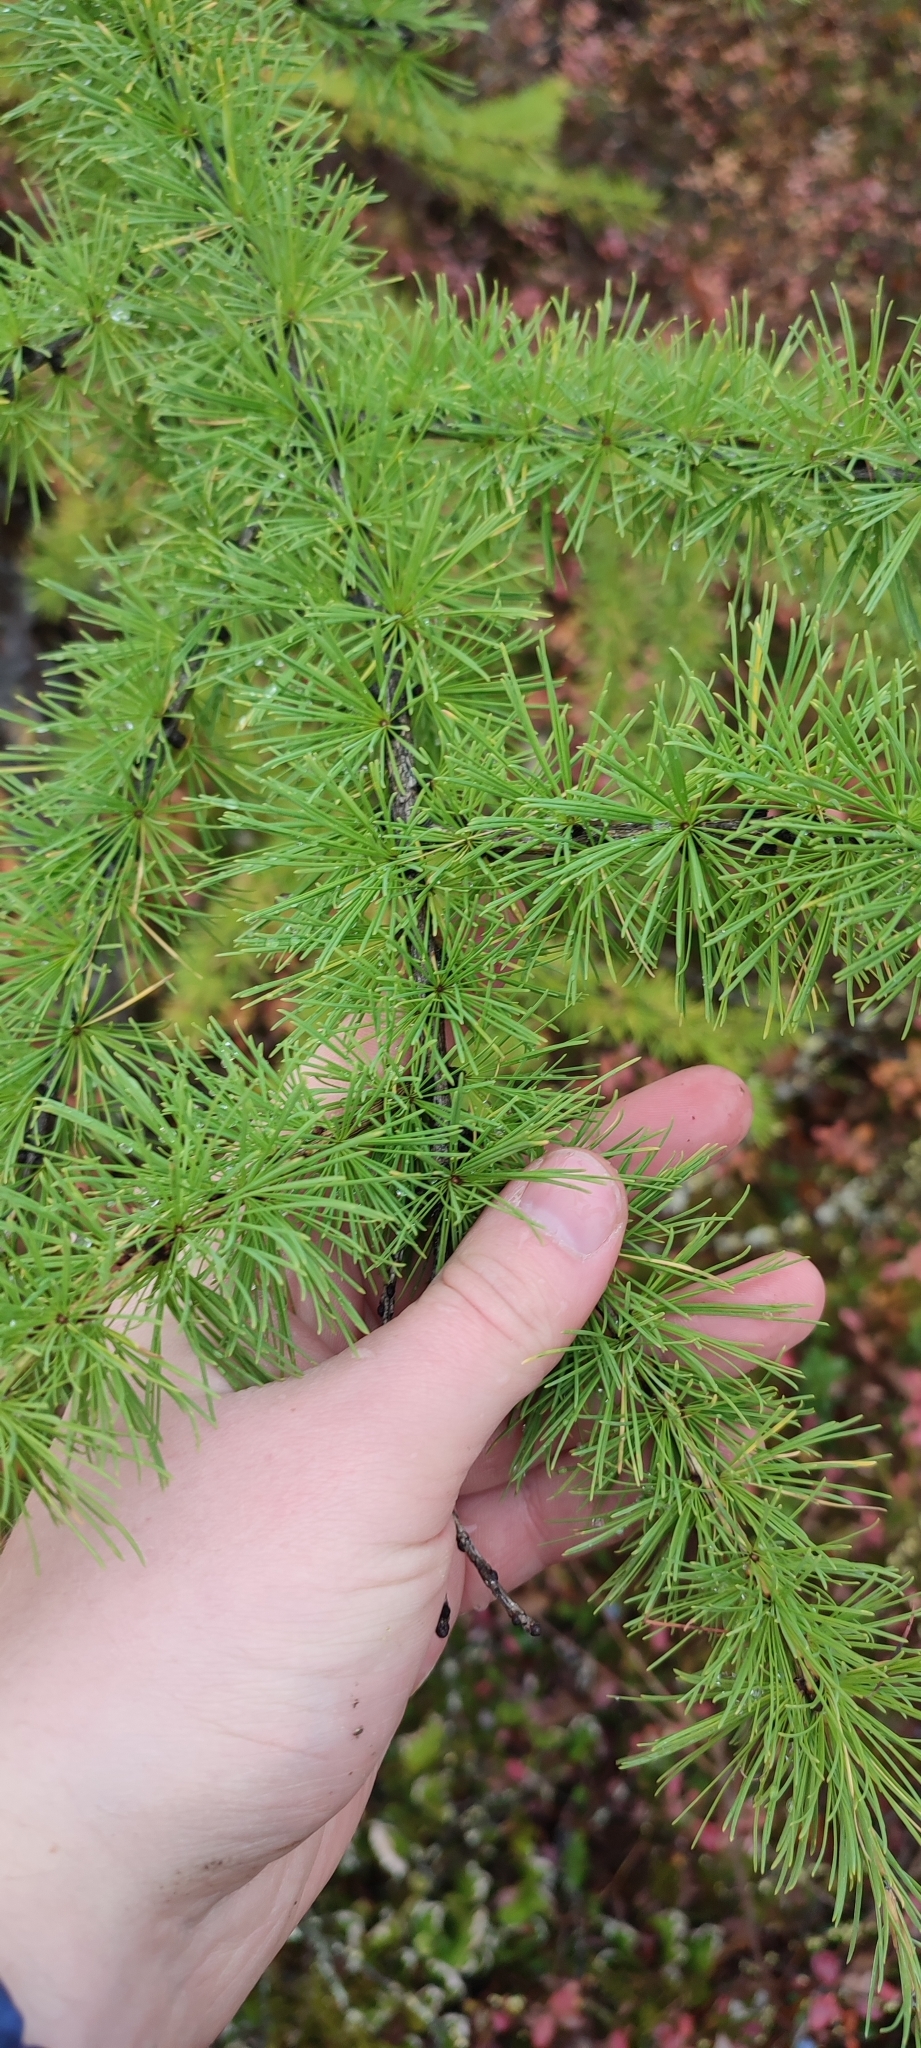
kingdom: Plantae
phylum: Tracheophyta
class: Pinopsida
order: Pinales
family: Pinaceae
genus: Larix
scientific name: Larix sibirica
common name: Siberian larch
